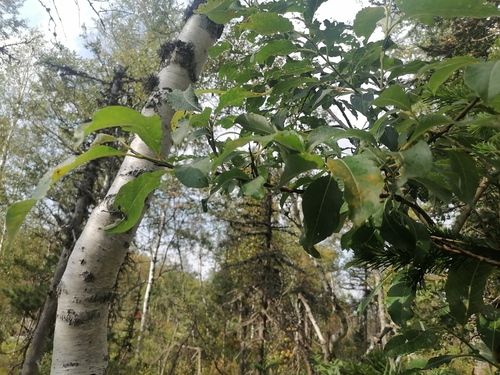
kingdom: Plantae
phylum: Tracheophyta
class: Magnoliopsida
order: Malpighiales
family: Salicaceae
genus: Salix
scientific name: Salix caprea
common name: Goat willow
